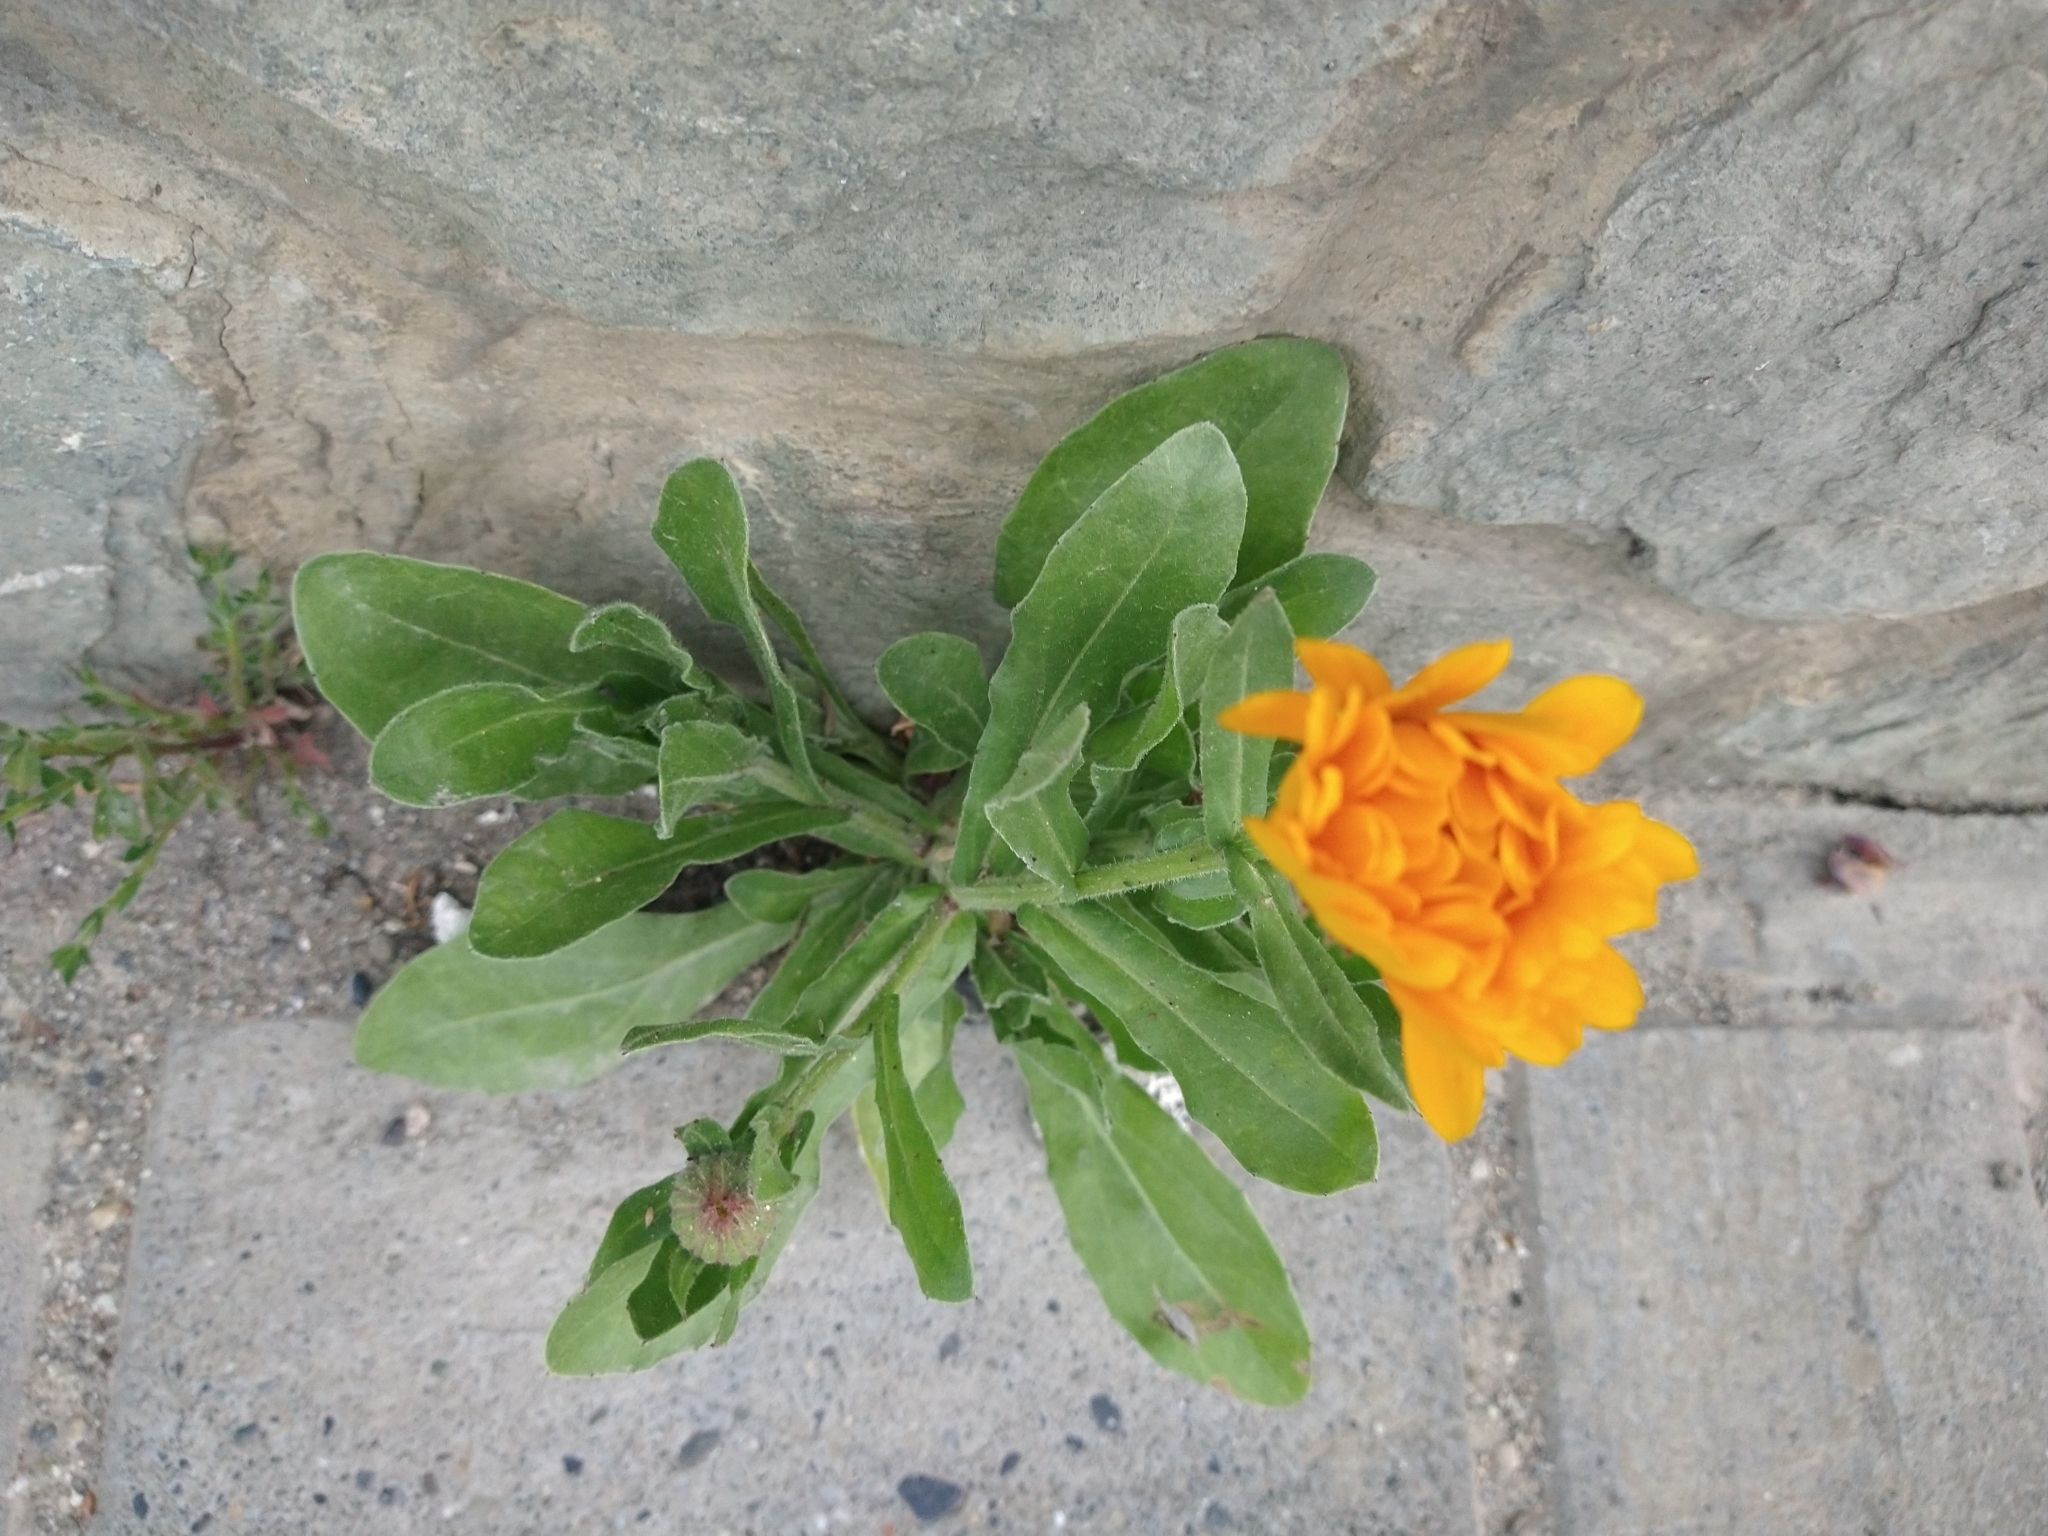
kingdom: Plantae
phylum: Tracheophyta
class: Magnoliopsida
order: Asterales
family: Asteraceae
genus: Calendula
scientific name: Calendula officinalis
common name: Pot marigold
